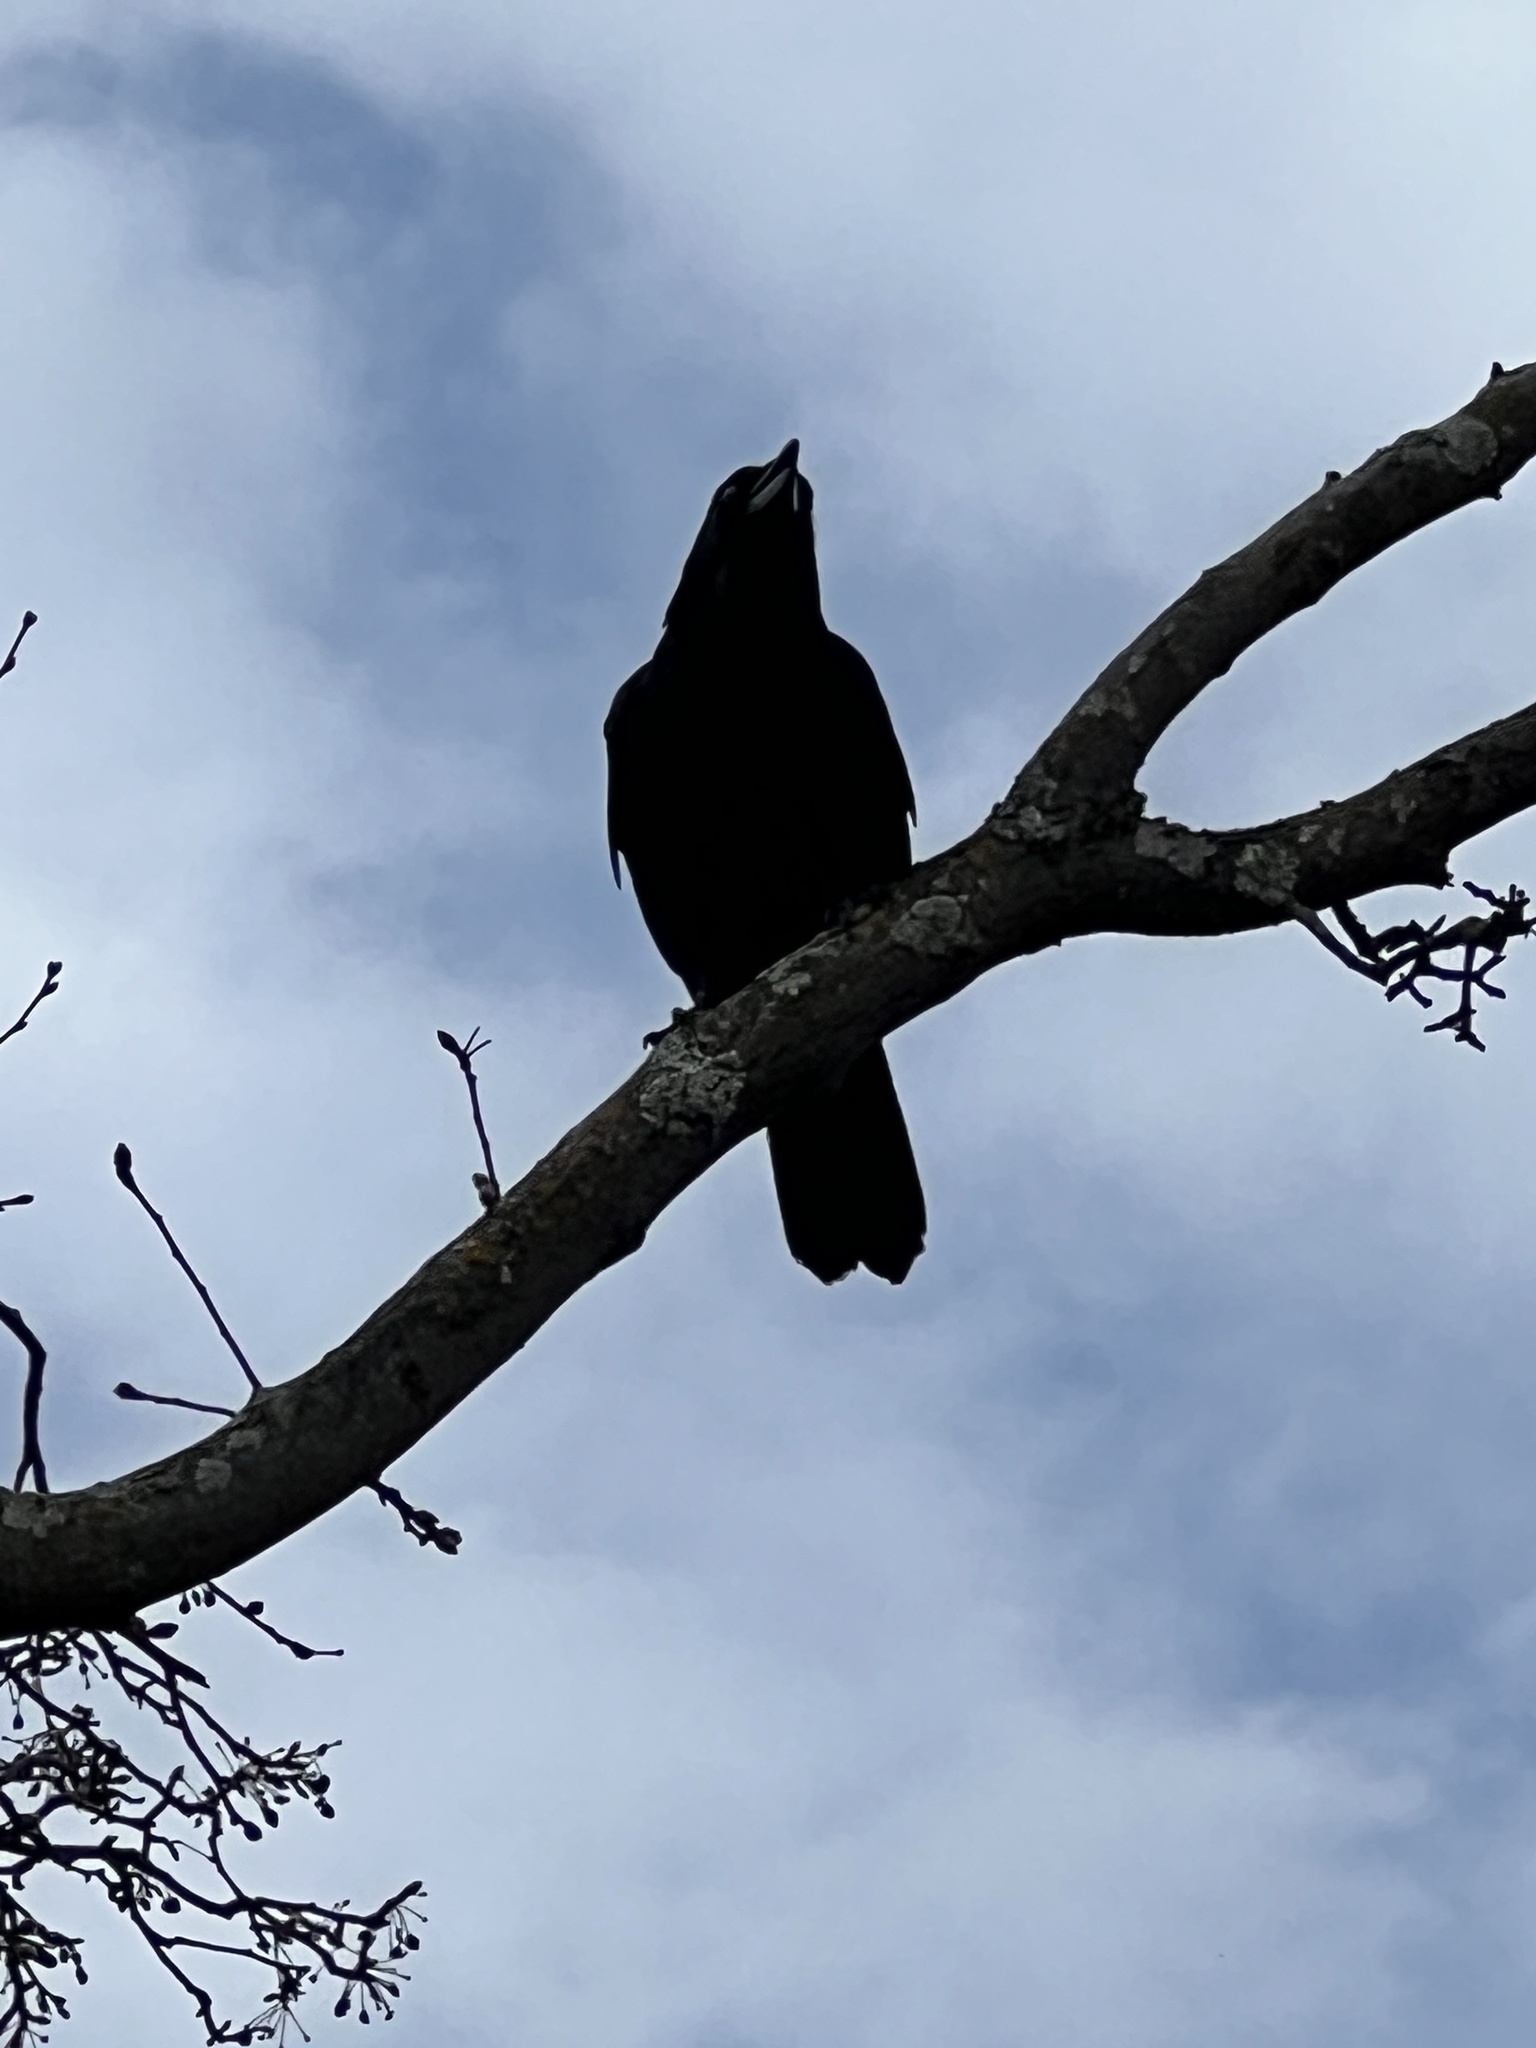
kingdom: Animalia
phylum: Chordata
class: Aves
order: Passeriformes
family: Corvidae
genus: Corvus
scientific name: Corvus brachyrhynchos
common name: American crow
